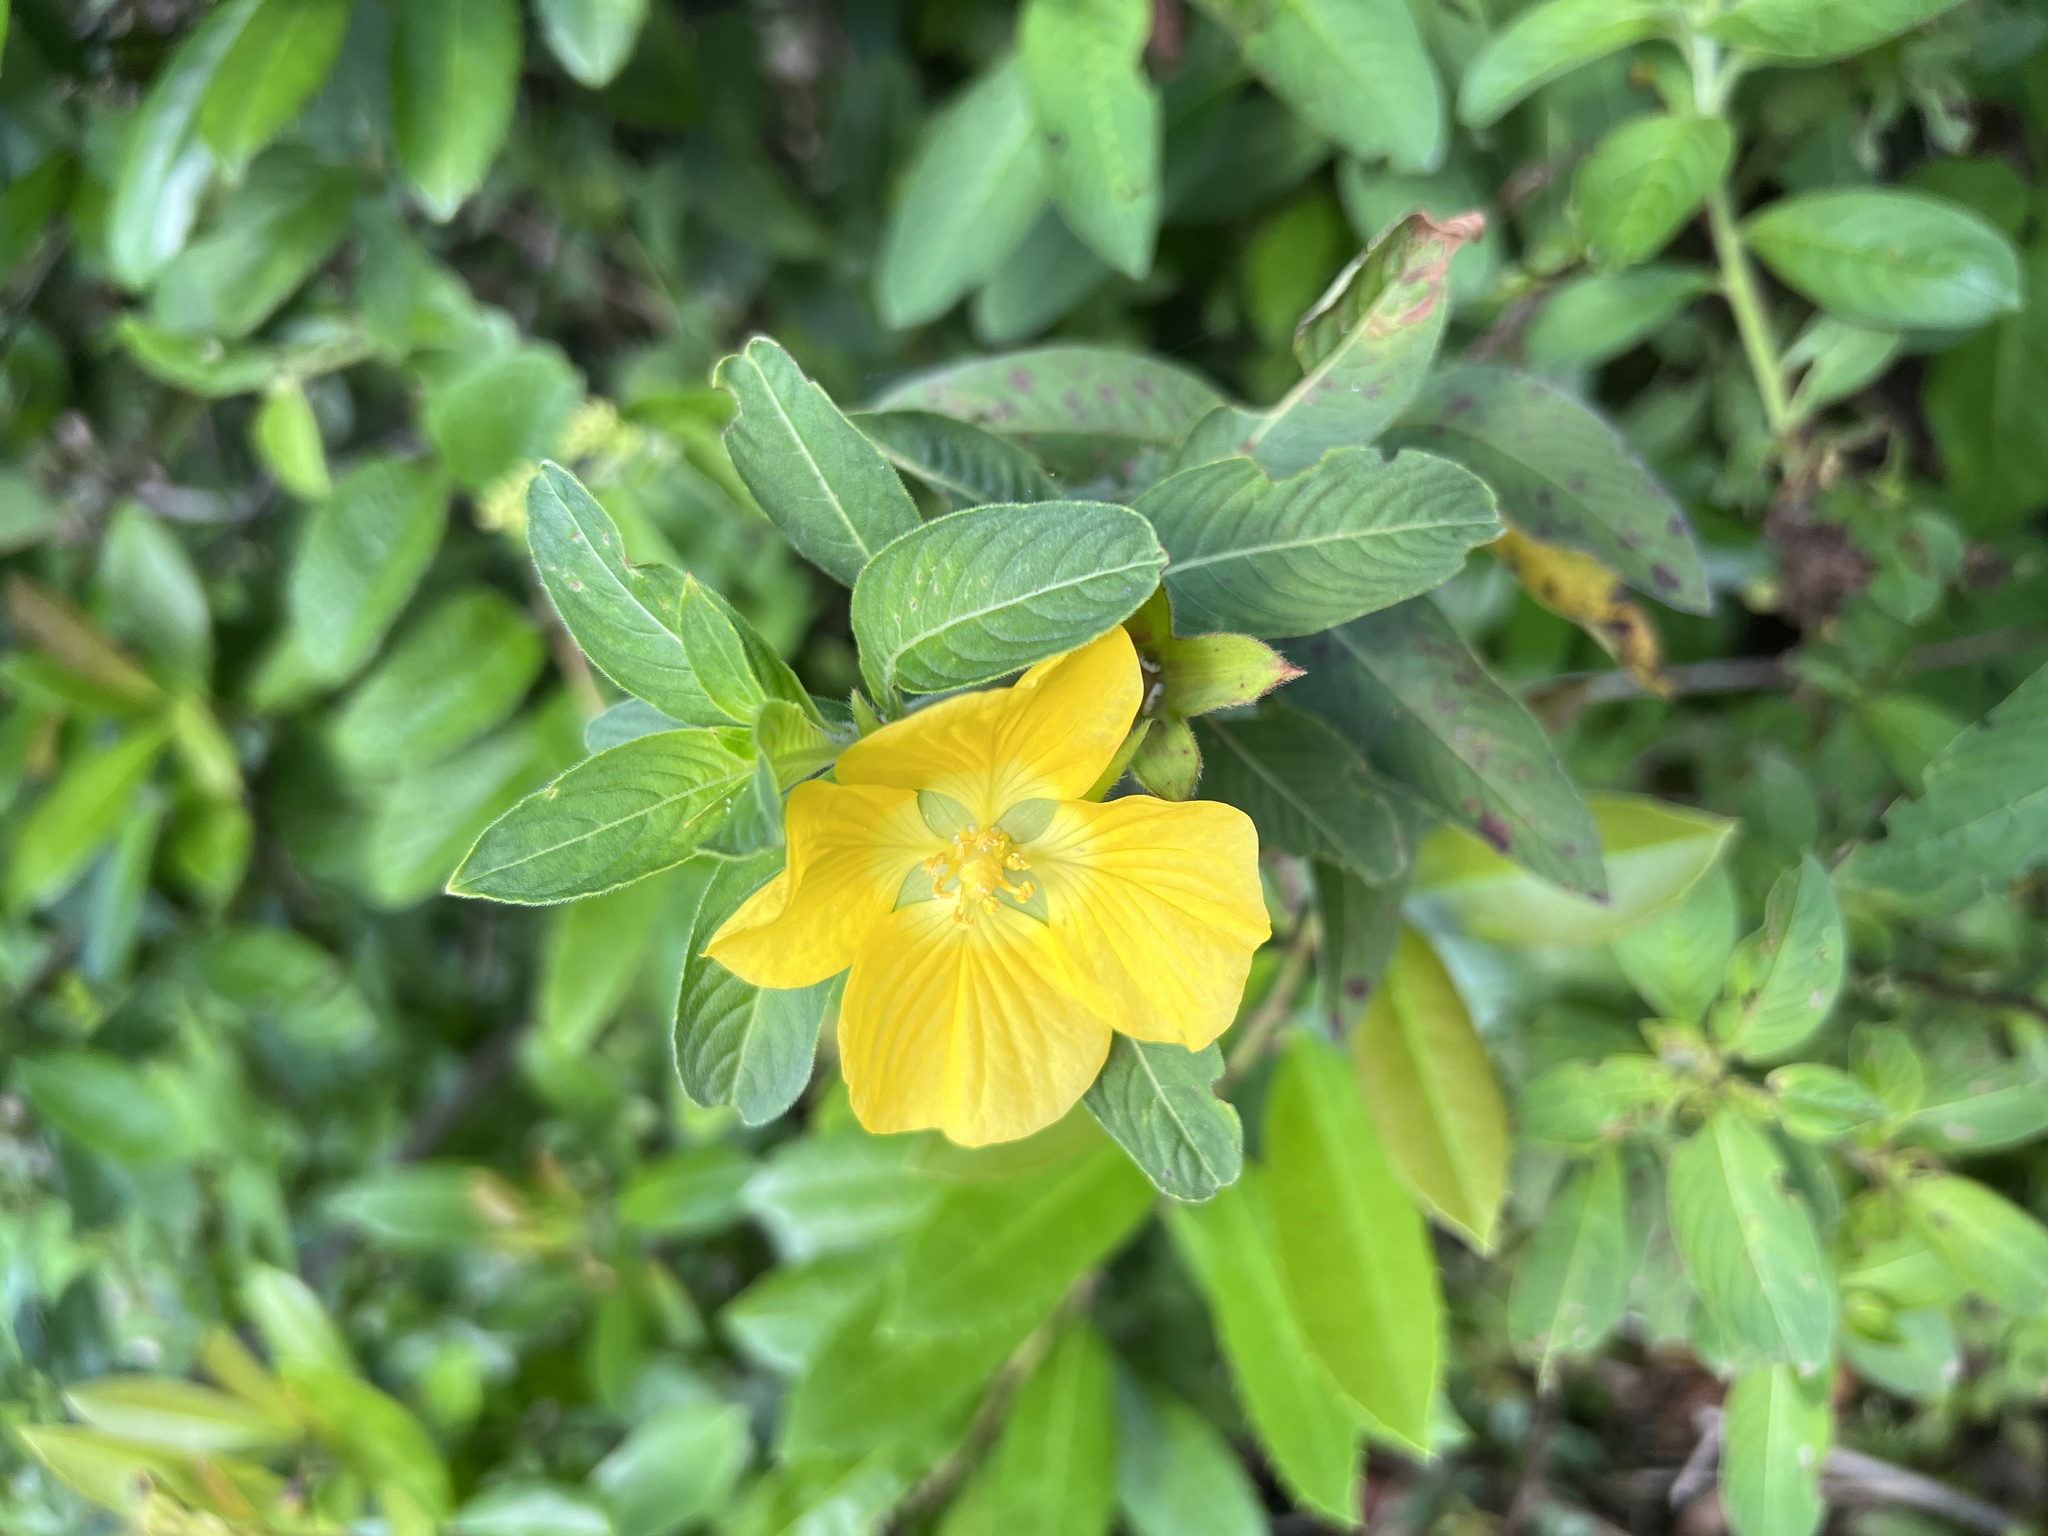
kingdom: Plantae
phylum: Tracheophyta
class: Magnoliopsida
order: Myrtales
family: Onagraceae
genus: Ludwigia
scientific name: Ludwigia peruviana
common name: Peruvian primrose-willow
